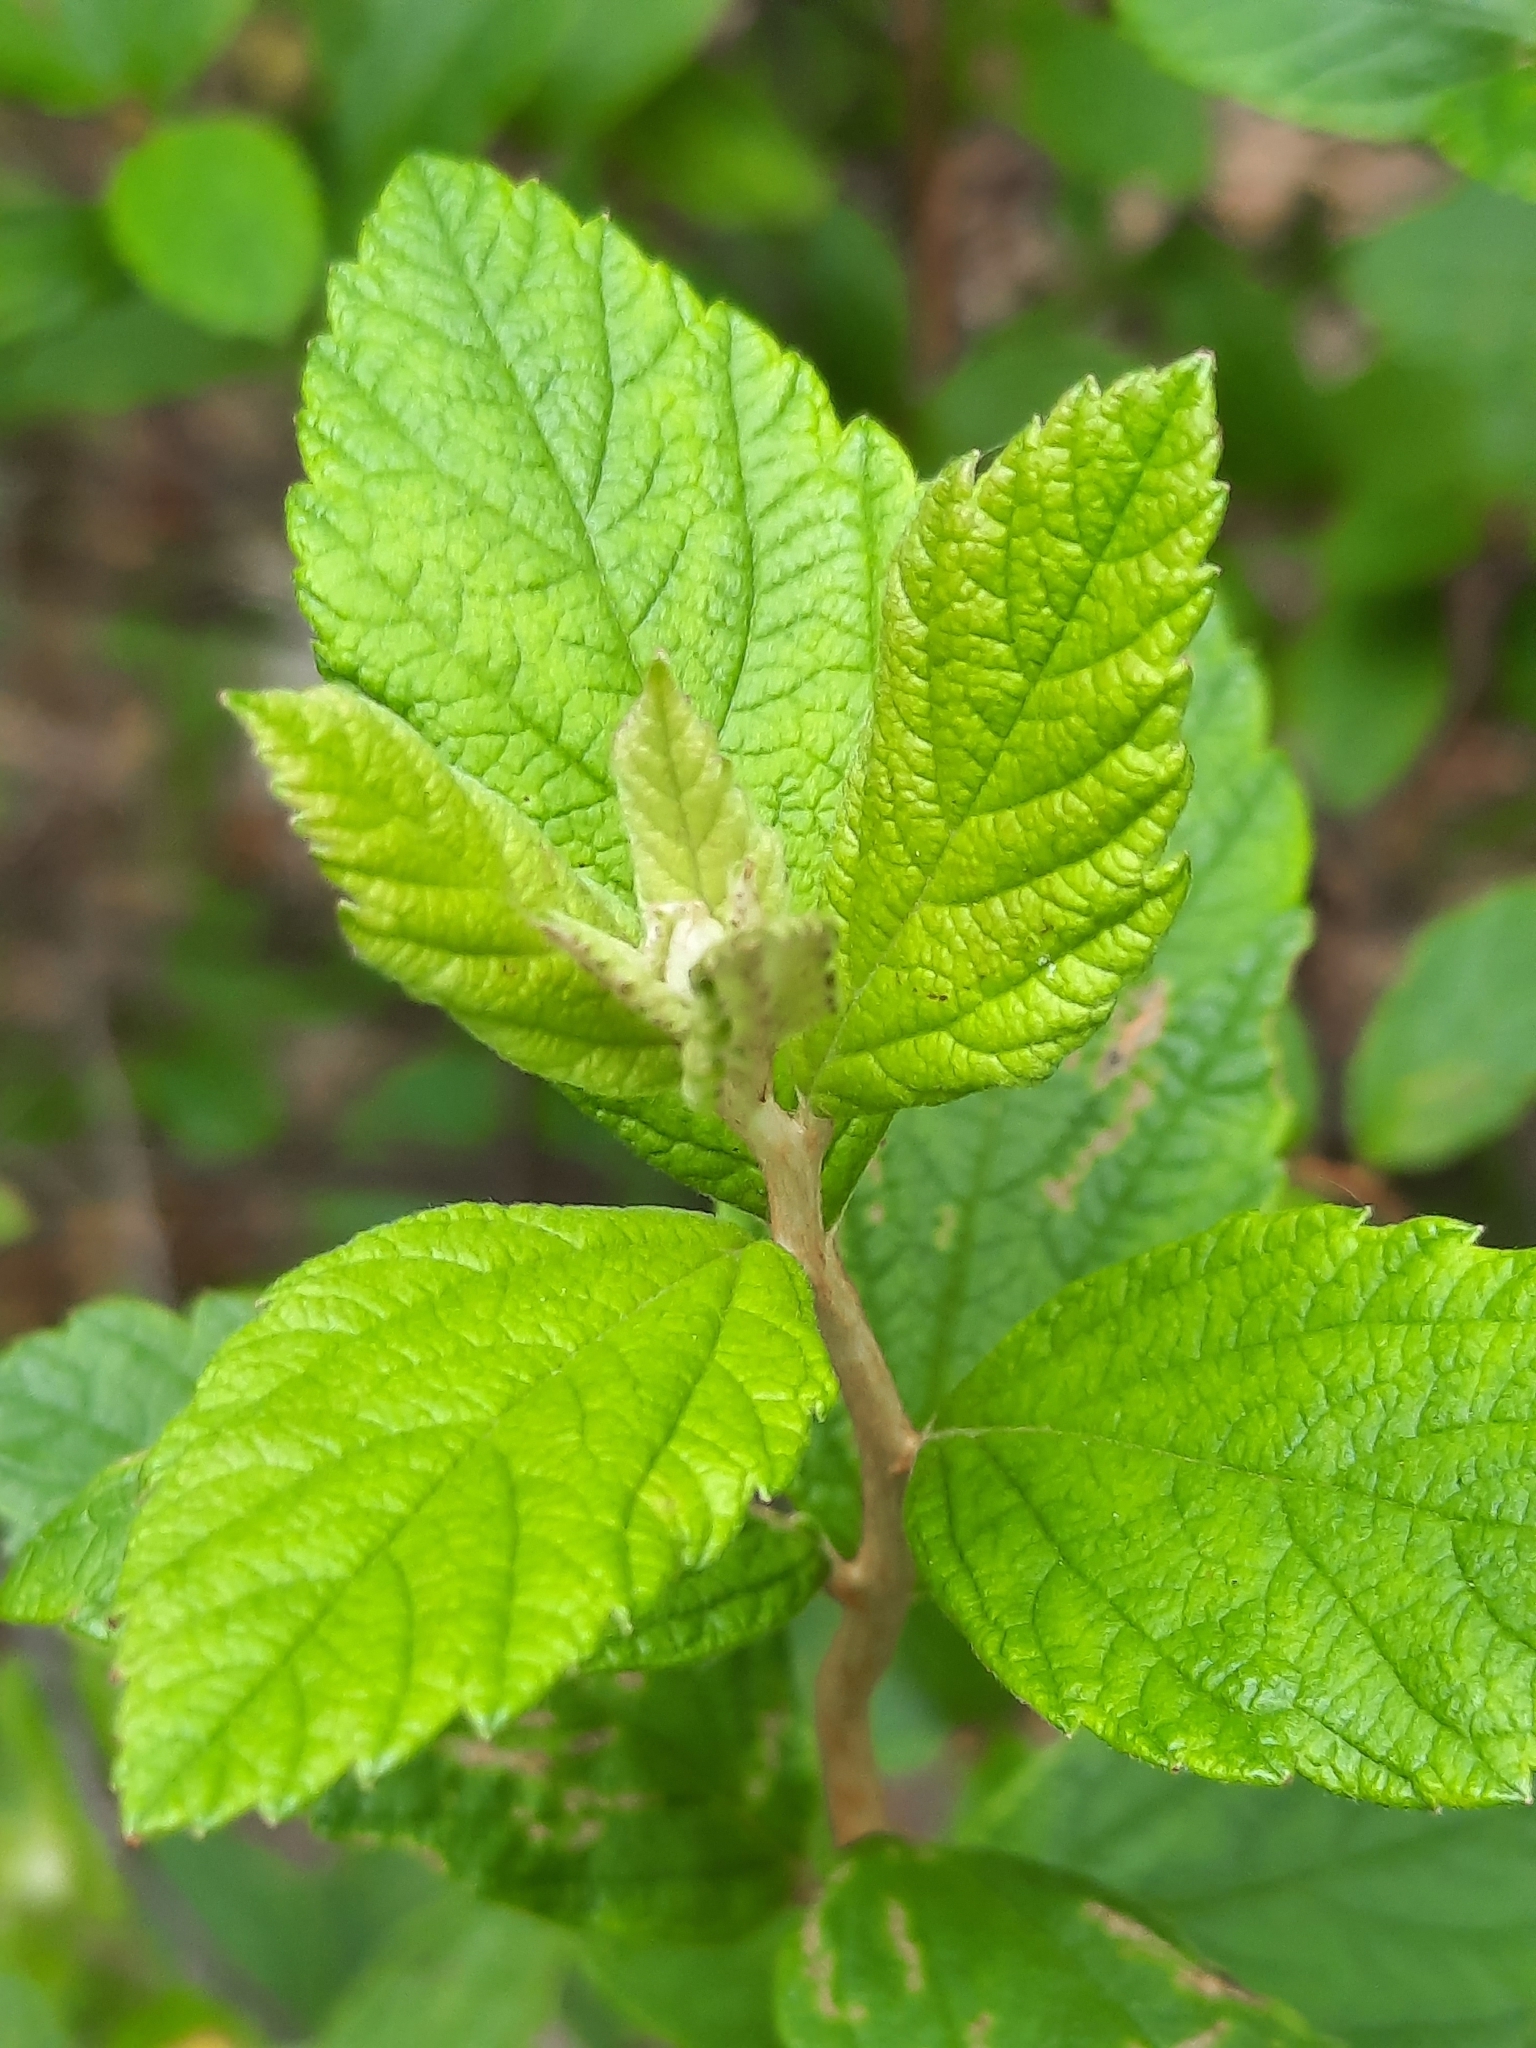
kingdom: Plantae
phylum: Tracheophyta
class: Magnoliopsida
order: Rosales
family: Rosaceae
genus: Spiraea
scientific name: Spiraea tomentosa
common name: Hardhack
